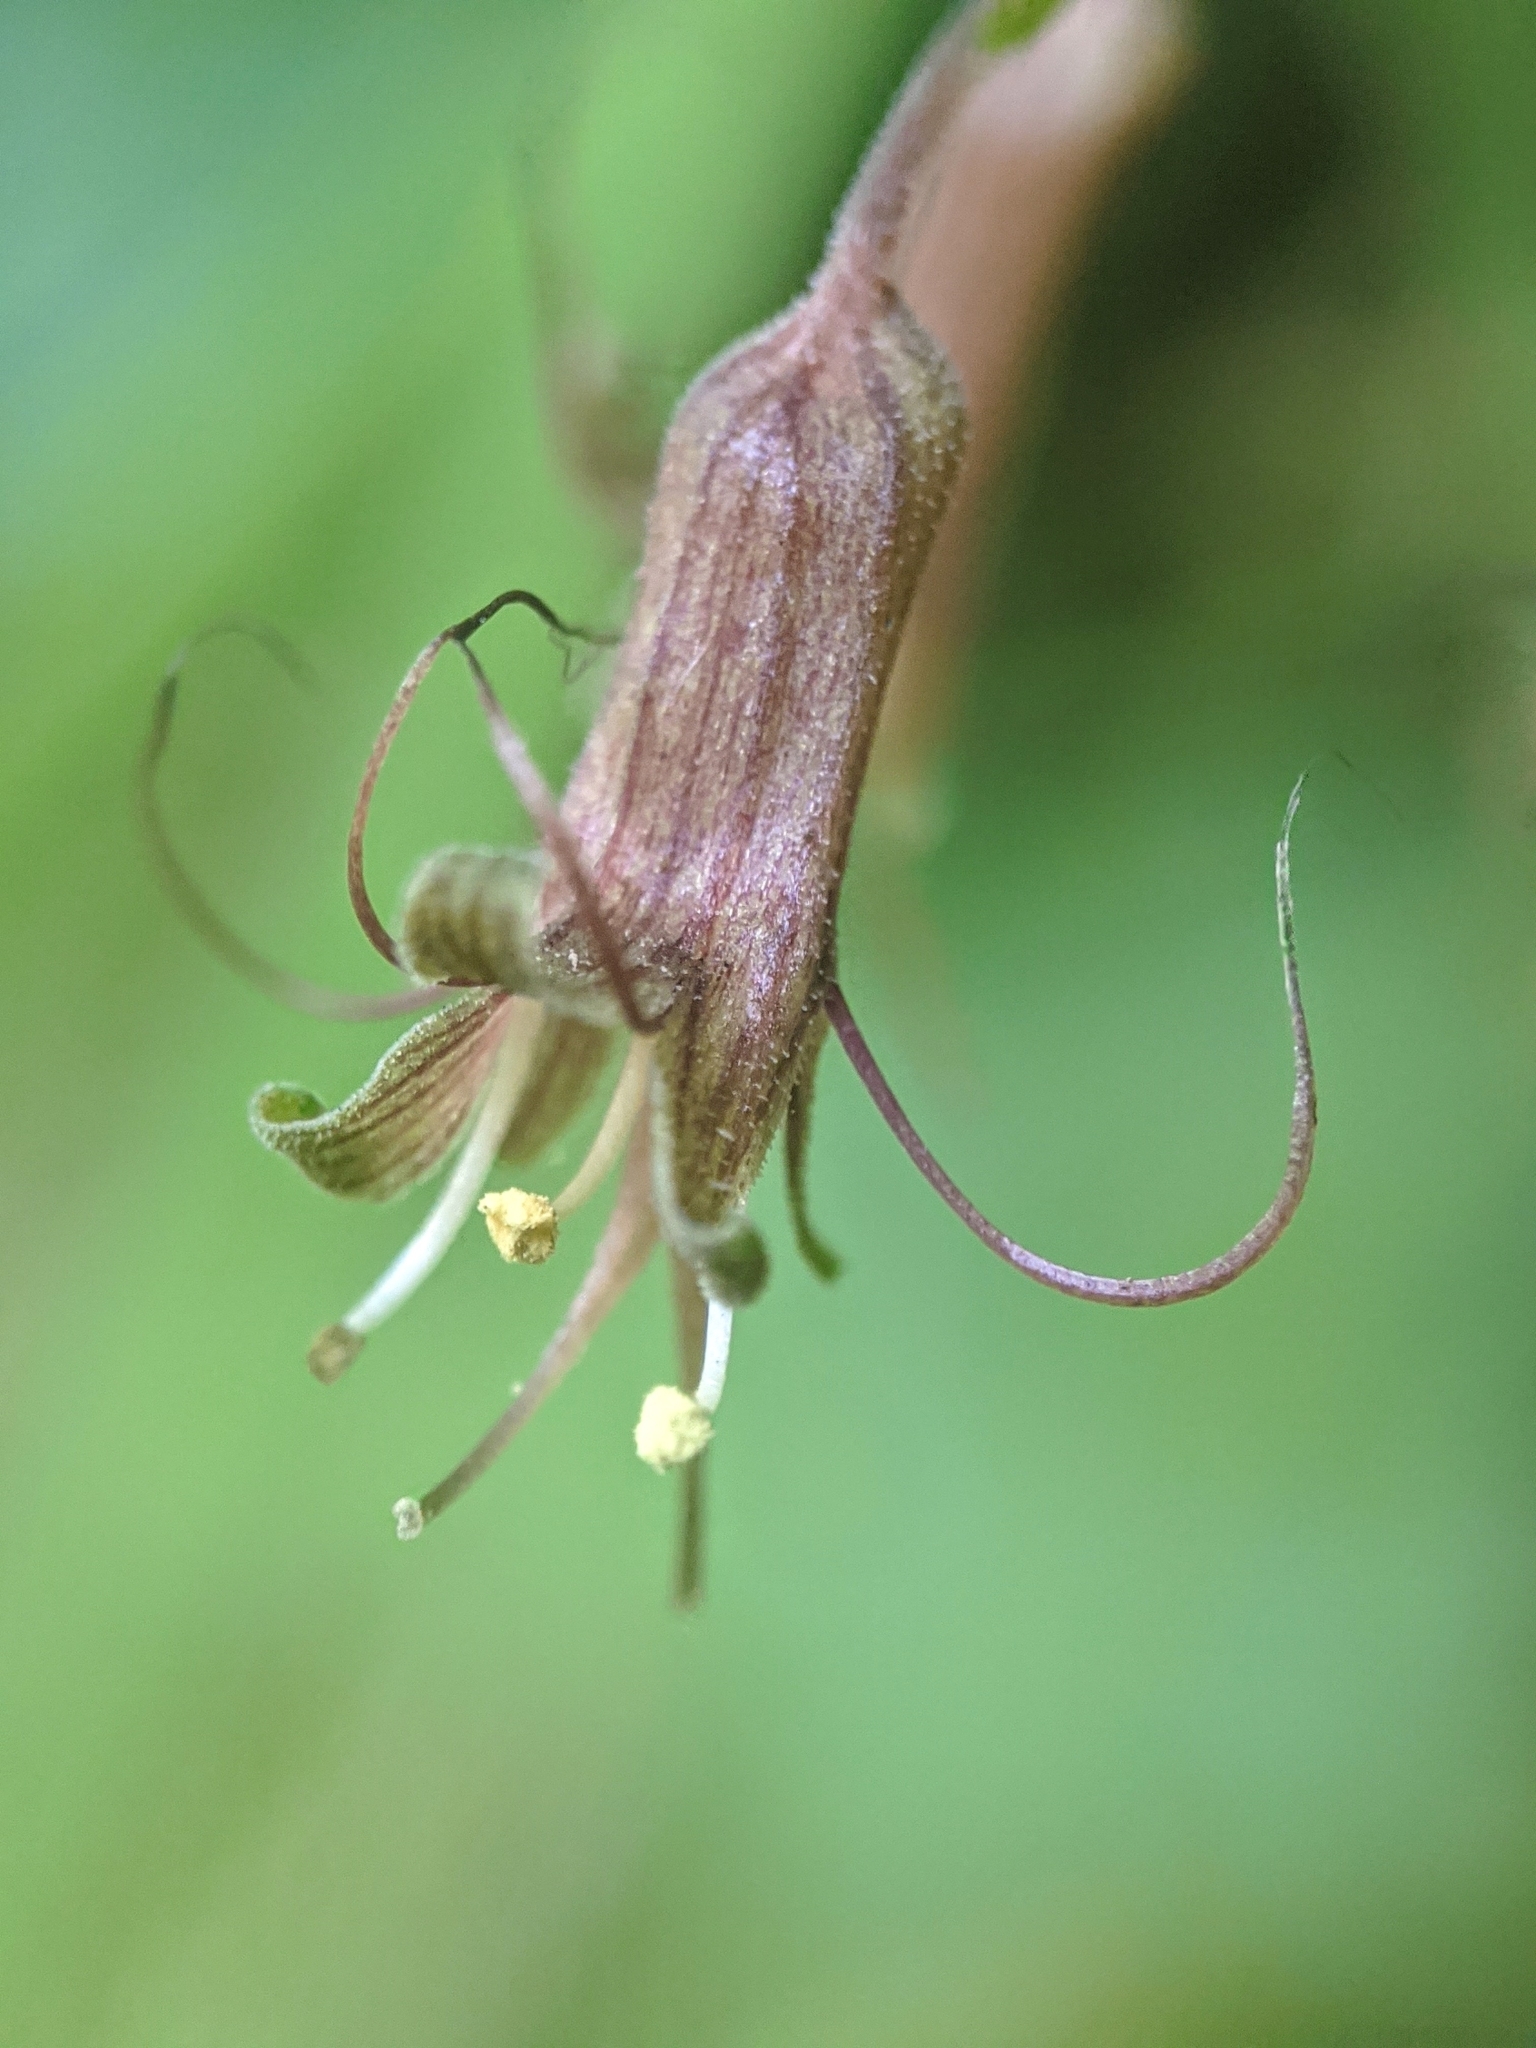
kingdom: Plantae
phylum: Tracheophyta
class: Magnoliopsida
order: Saxifragales
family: Saxifragaceae
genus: Tolmiea
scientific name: Tolmiea diplomenziesii
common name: Youth on age
